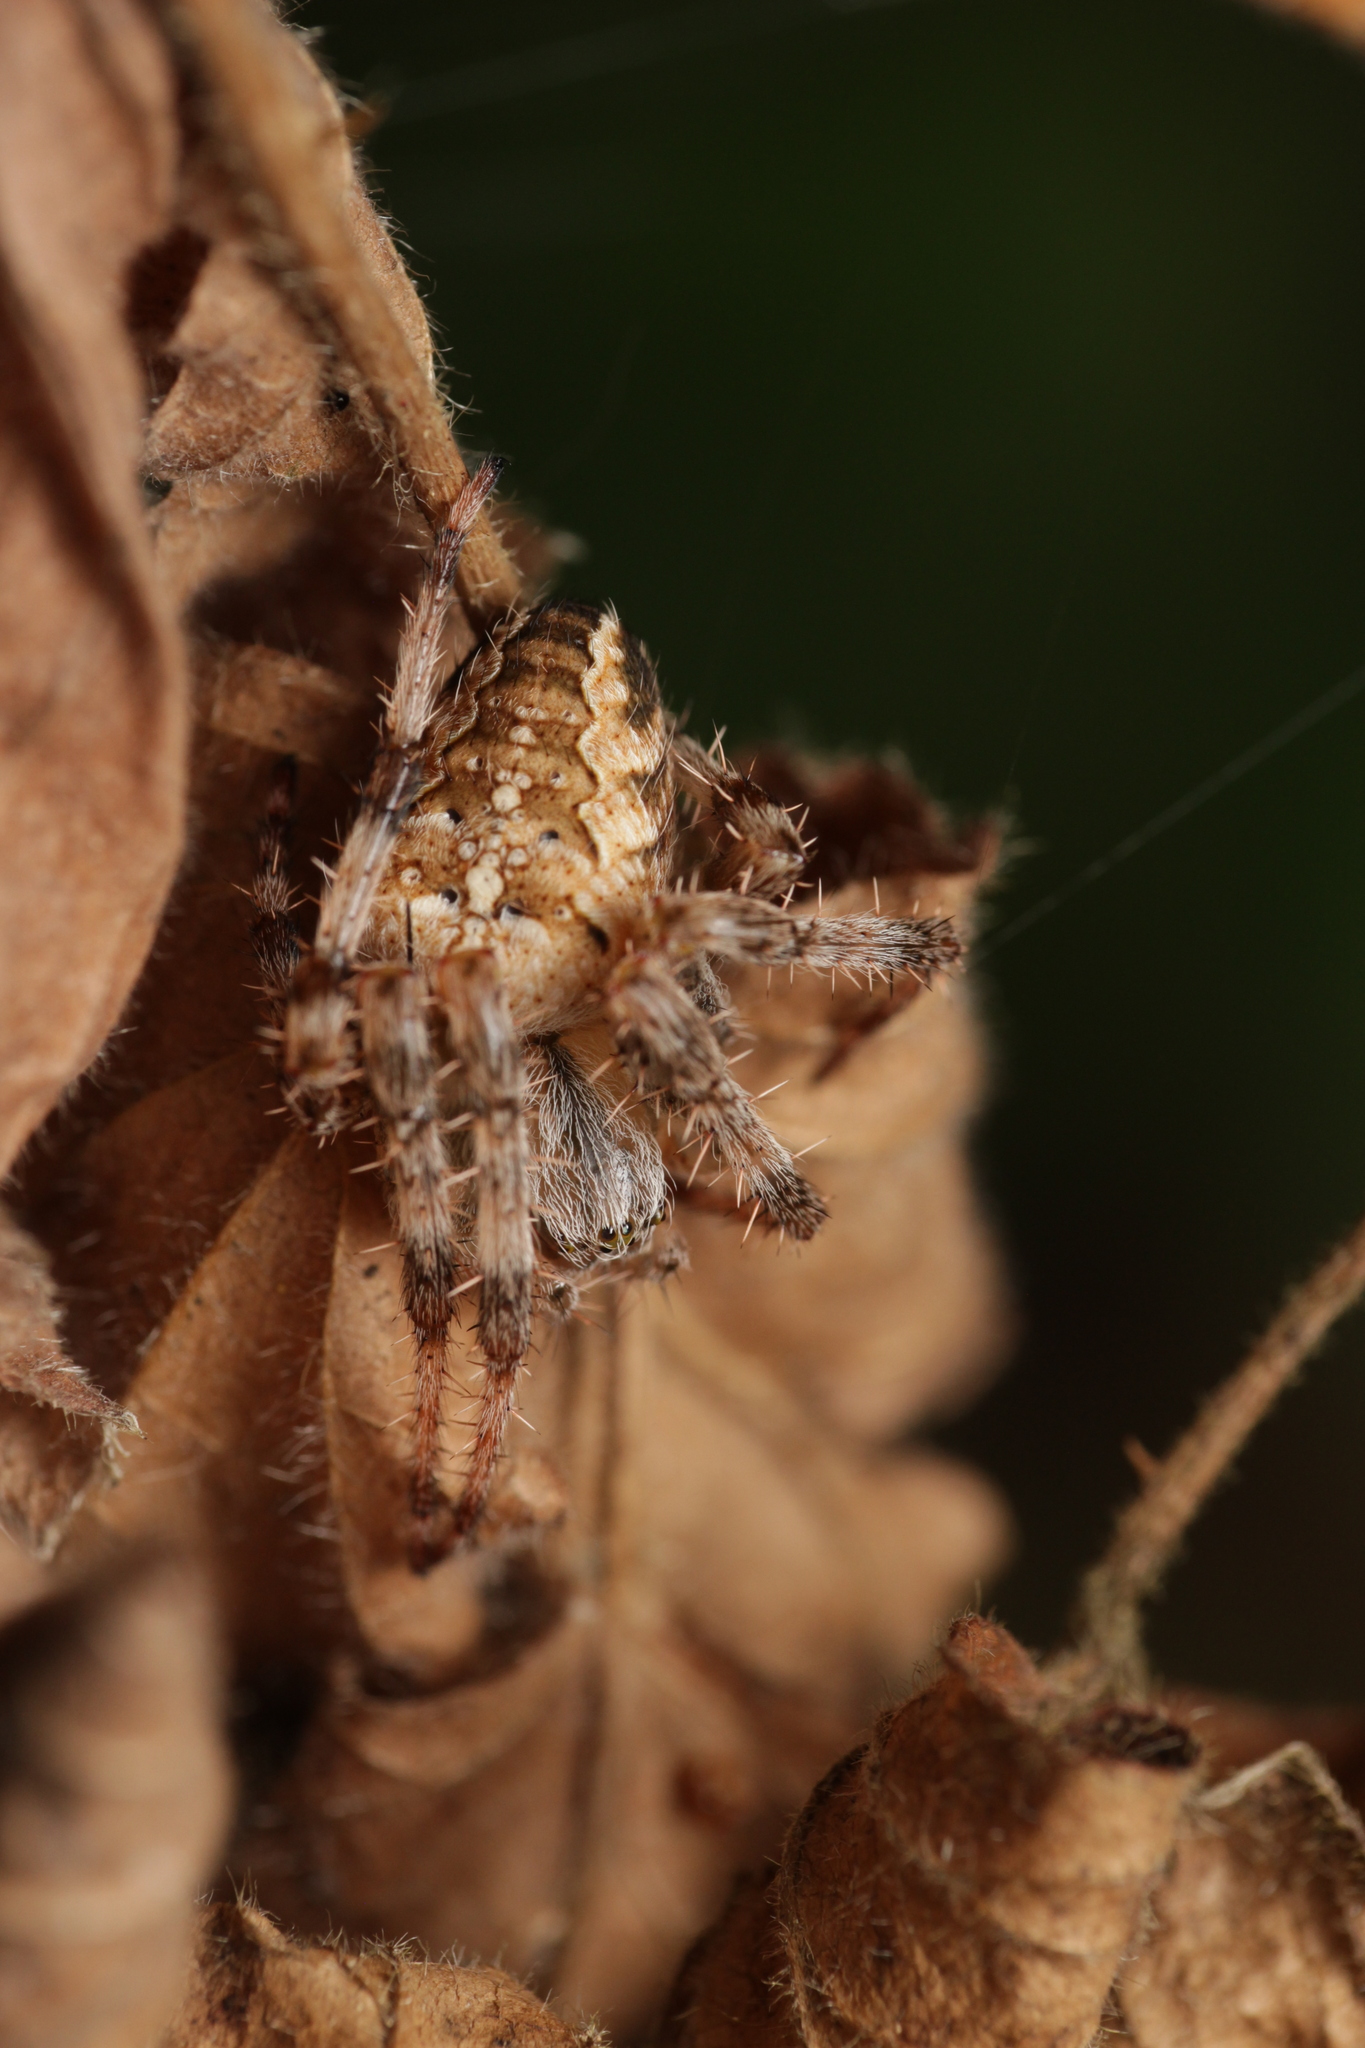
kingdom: Animalia
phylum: Arthropoda
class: Arachnida
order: Araneae
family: Araneidae
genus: Araneus
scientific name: Araneus diadematus
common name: Cross orbweaver
